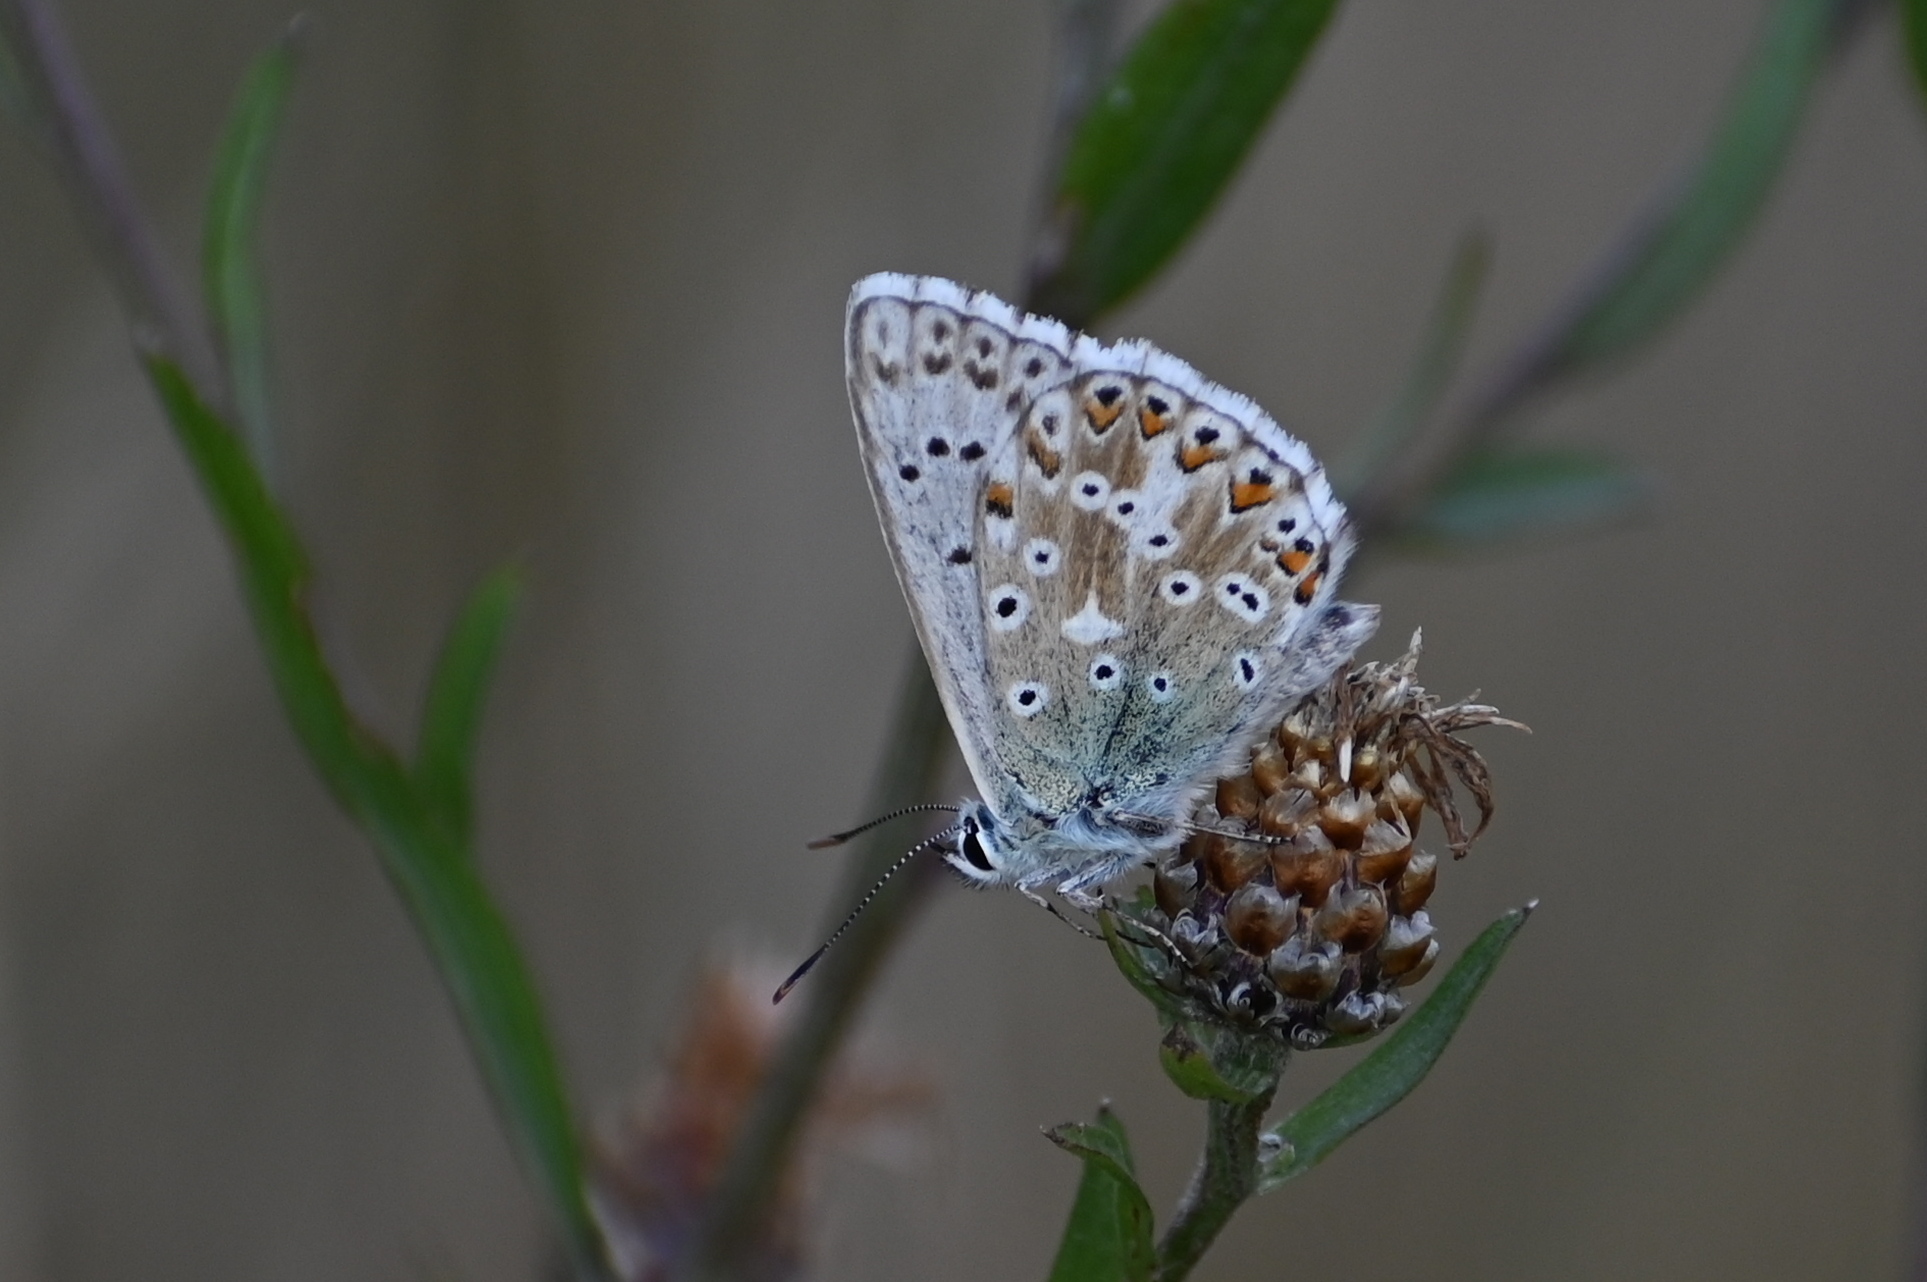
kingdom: Animalia
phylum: Arthropoda
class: Insecta
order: Lepidoptera
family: Lycaenidae
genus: Lysandra
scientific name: Lysandra coridon
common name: Chalkhill blue
